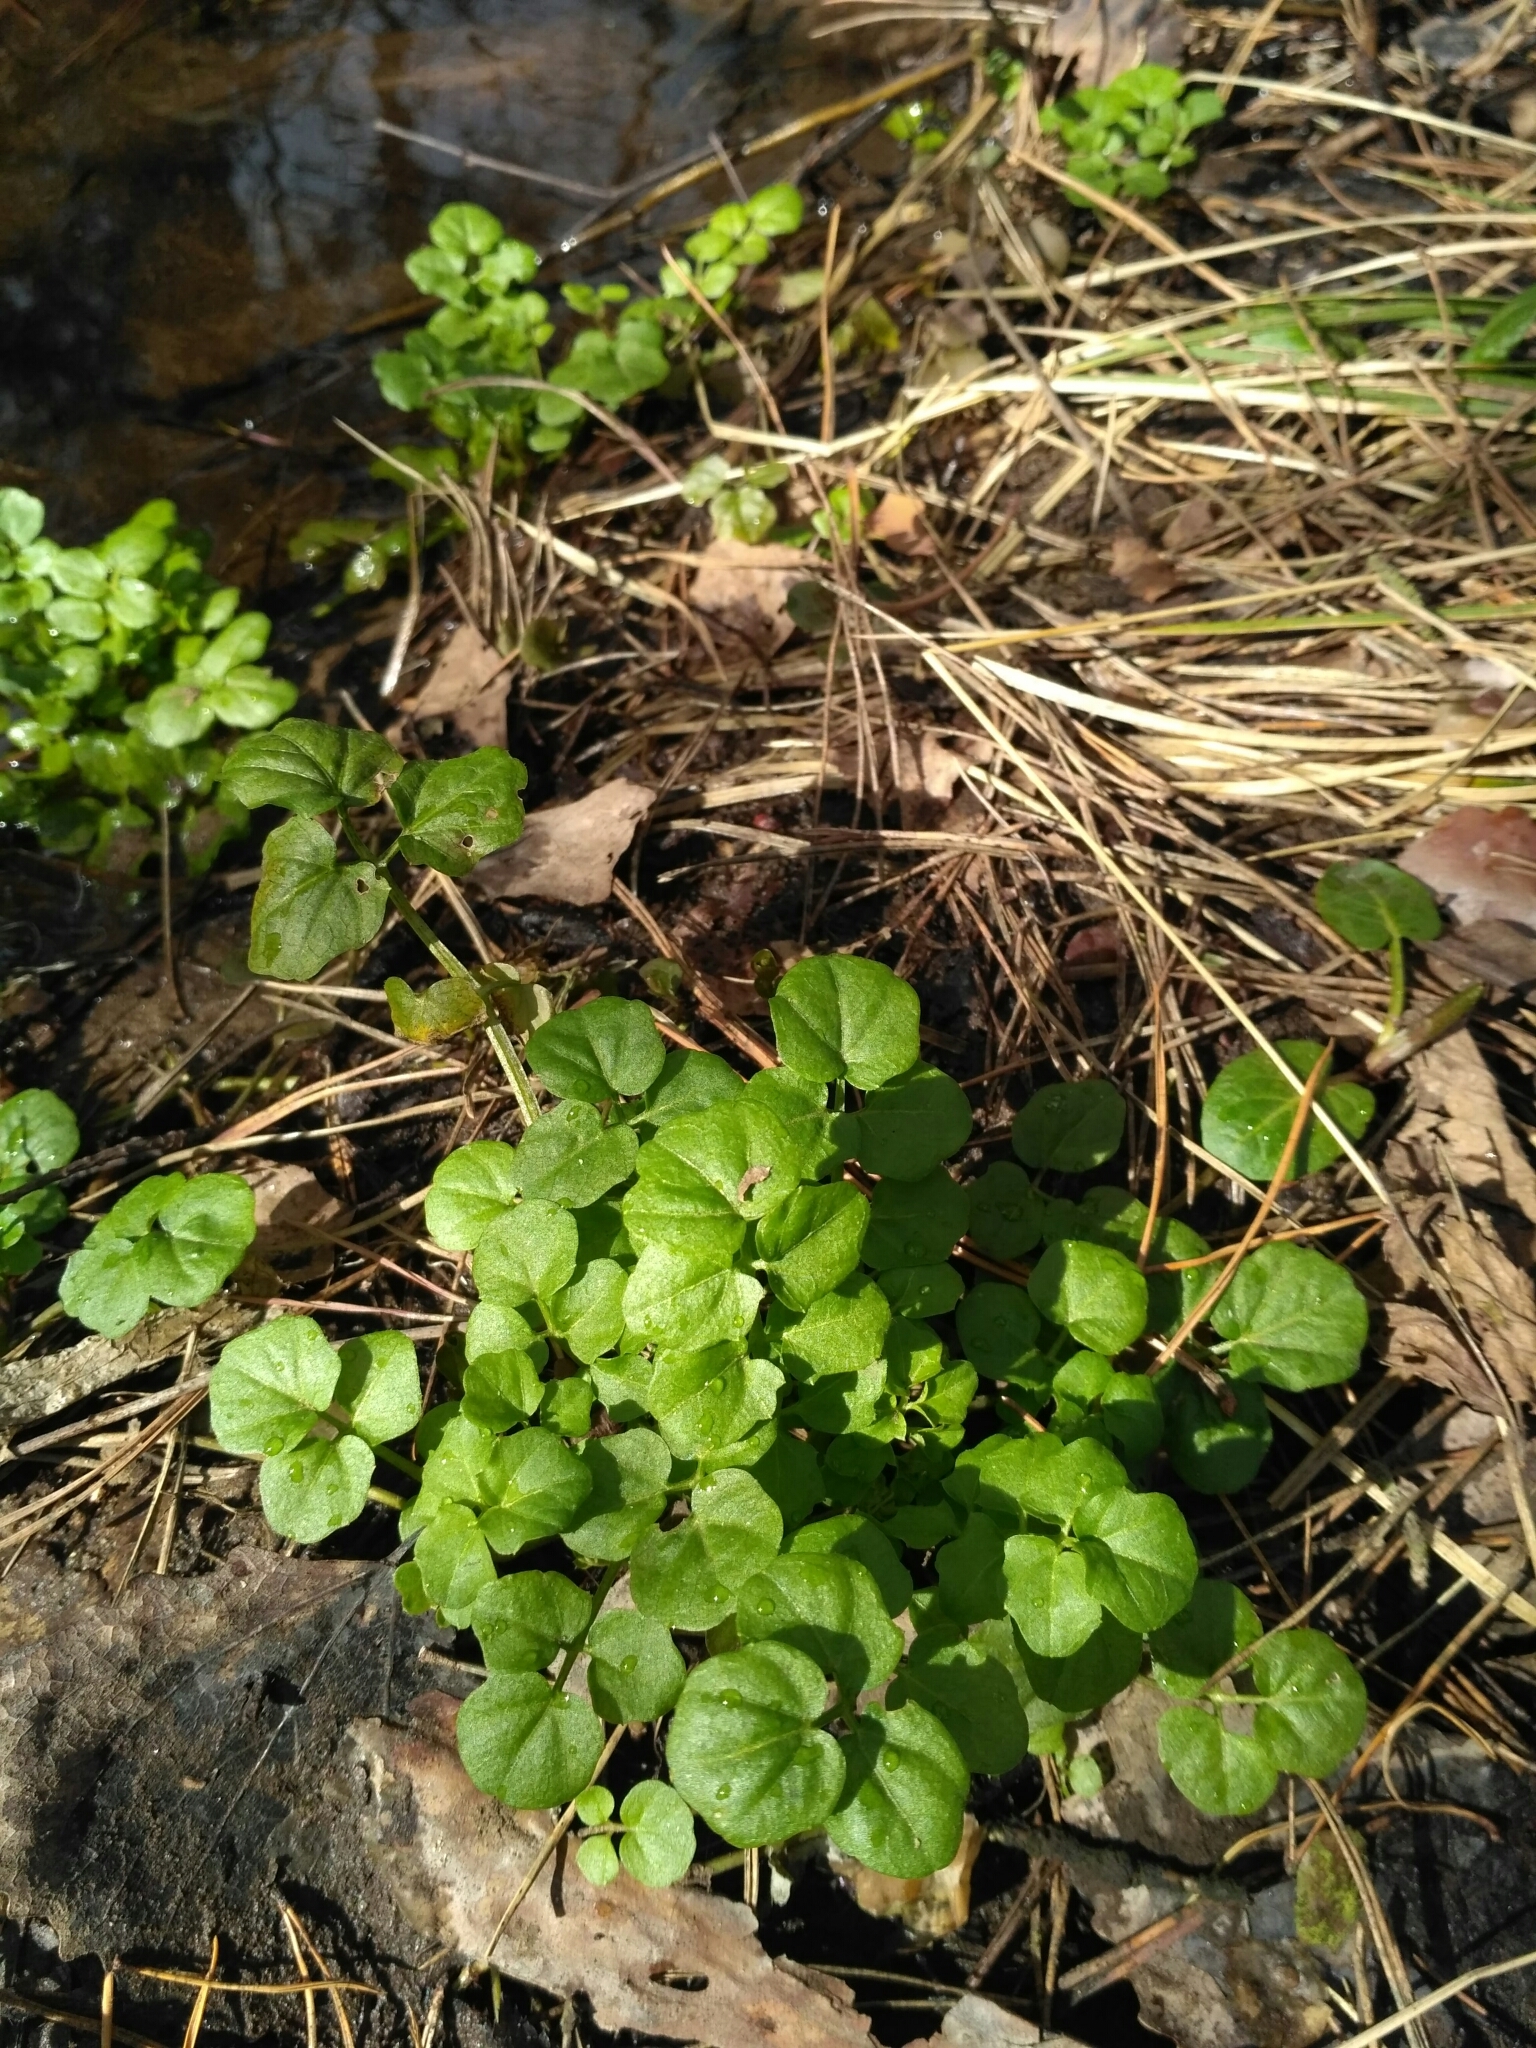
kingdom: Plantae
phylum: Tracheophyta
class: Magnoliopsida
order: Brassicales
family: Brassicaceae
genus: Cardamine
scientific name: Cardamine amara
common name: Large bitter-cress
